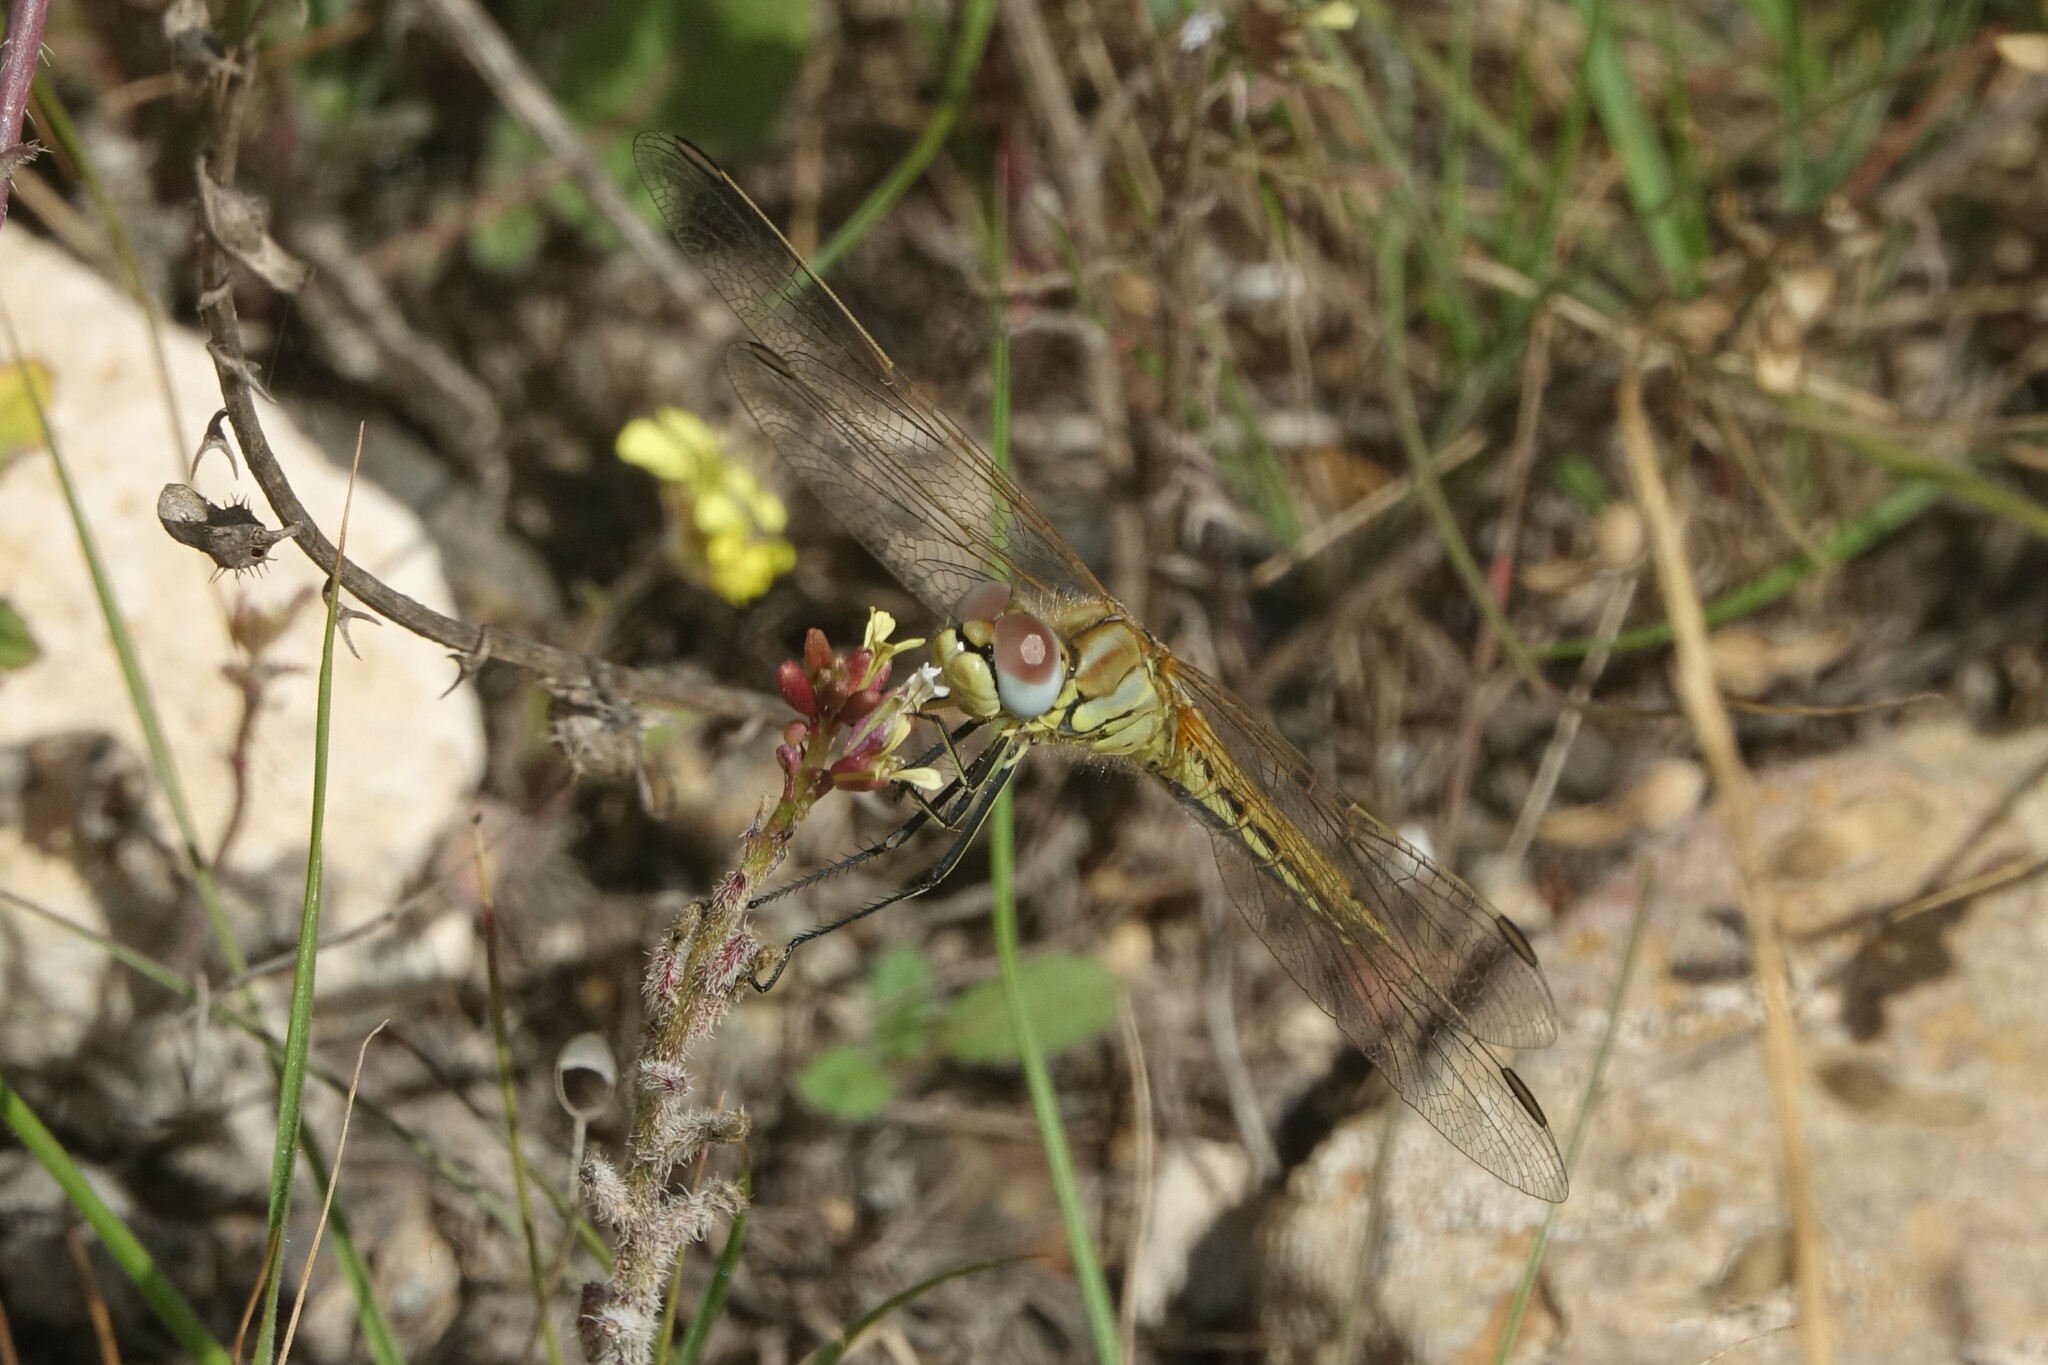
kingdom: Animalia
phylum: Arthropoda
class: Insecta
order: Odonata
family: Libellulidae
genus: Sympetrum
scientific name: Sympetrum fonscolombii
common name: Red-veined darter
